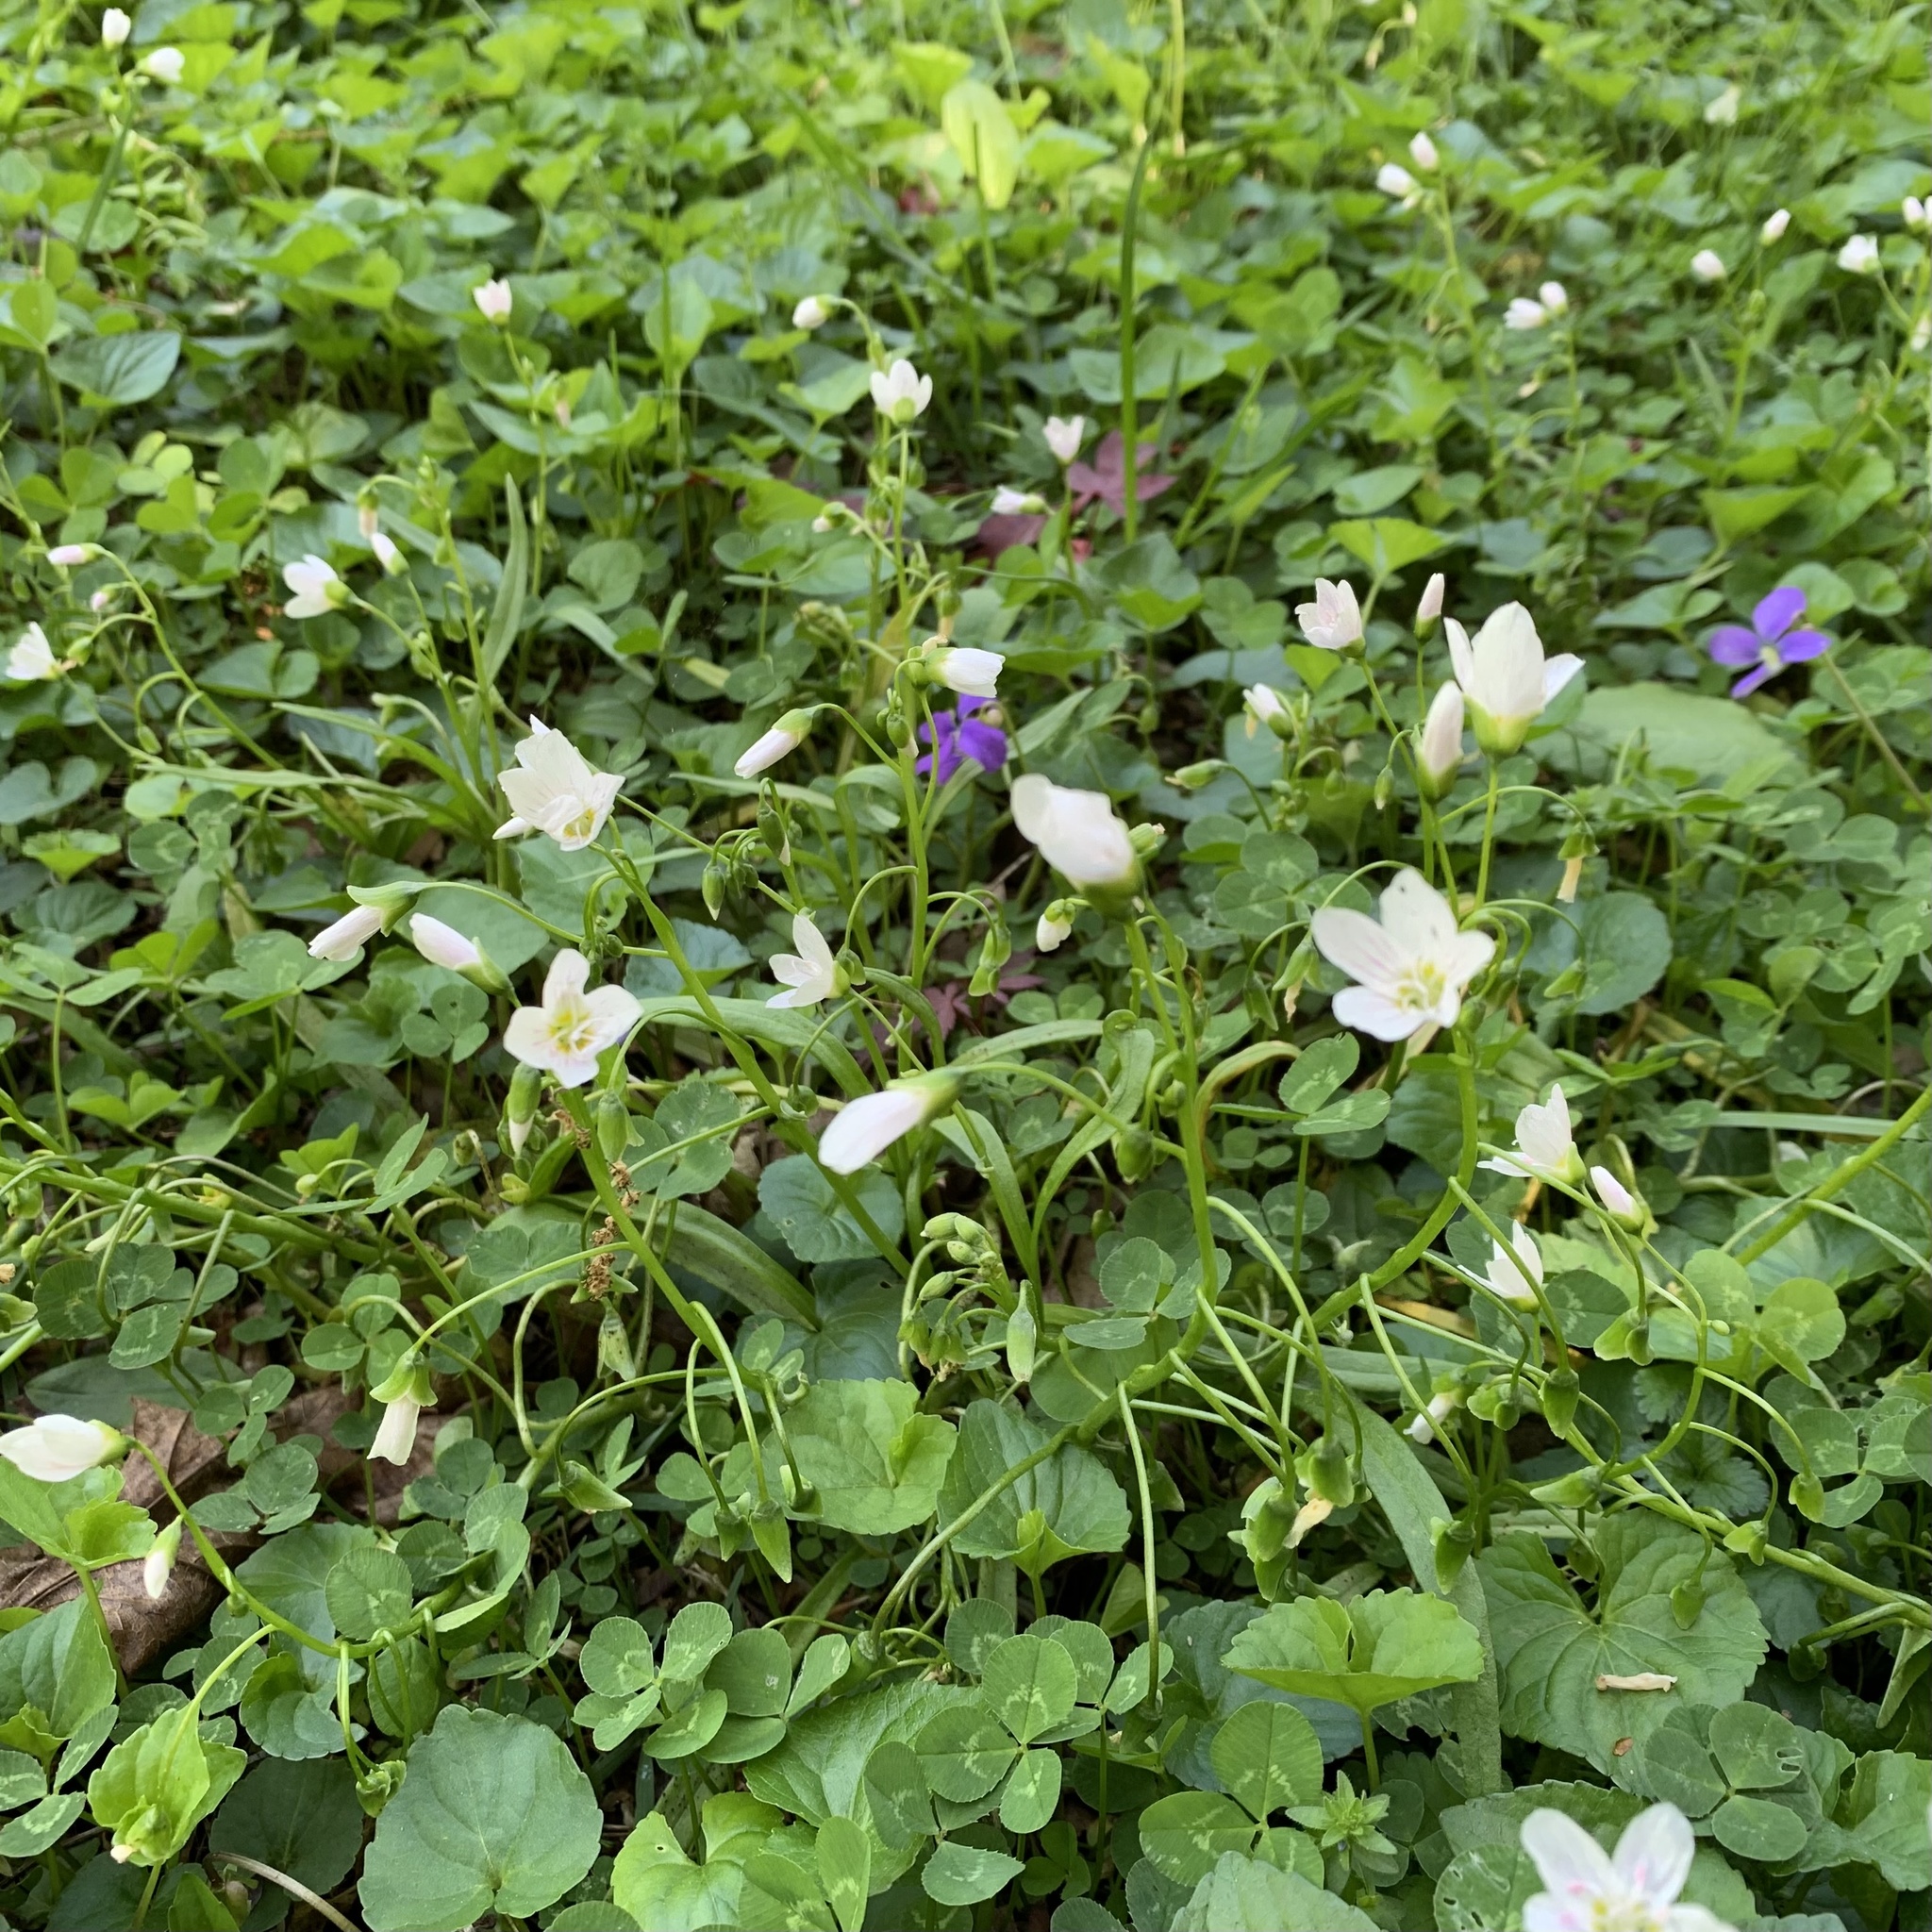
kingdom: Plantae
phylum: Tracheophyta
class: Magnoliopsida
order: Caryophyllales
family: Montiaceae
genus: Claytonia
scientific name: Claytonia virginica
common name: Virginia springbeauty
